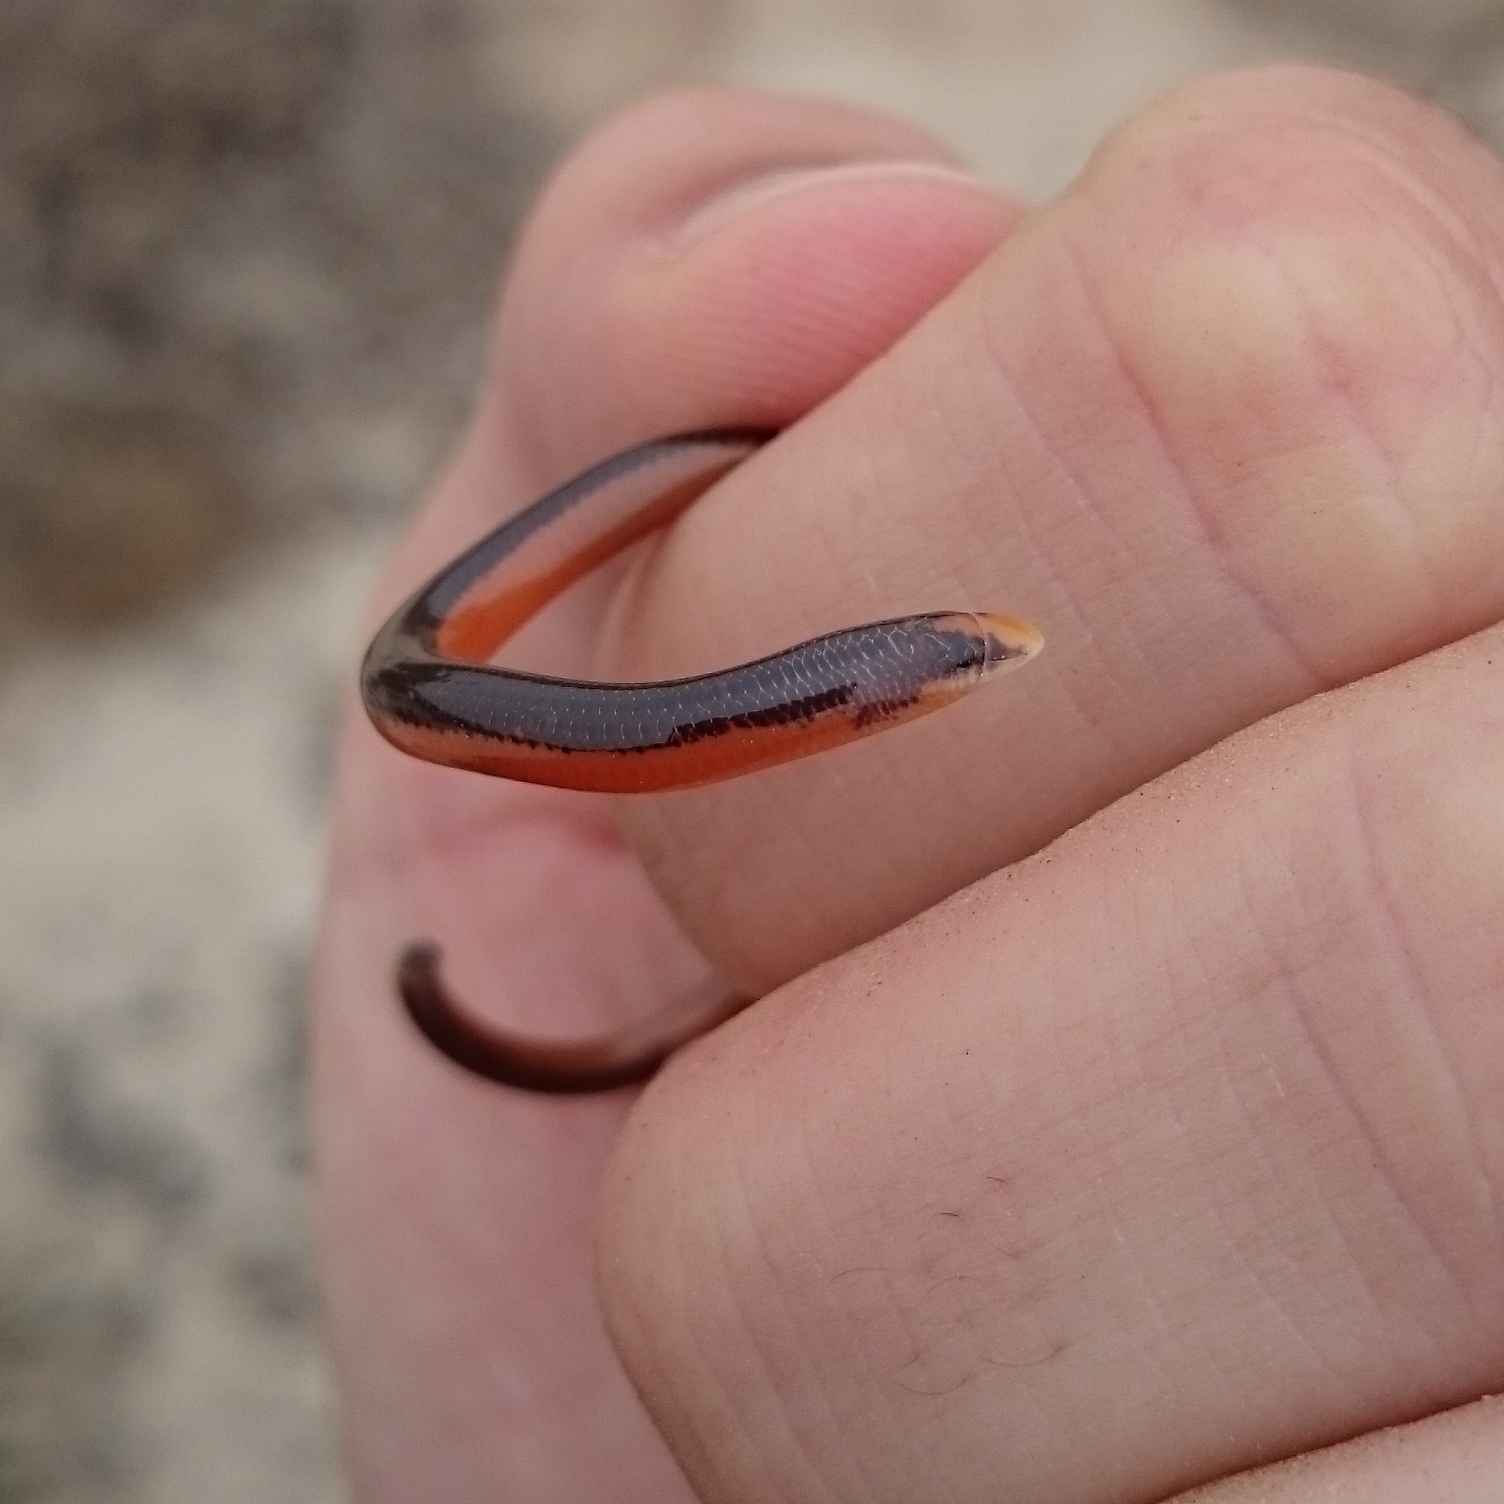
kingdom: Animalia
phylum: Chordata
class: Squamata
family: Scincidae
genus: Acontias
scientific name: Acontias lineatus
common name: Lined lance skink
